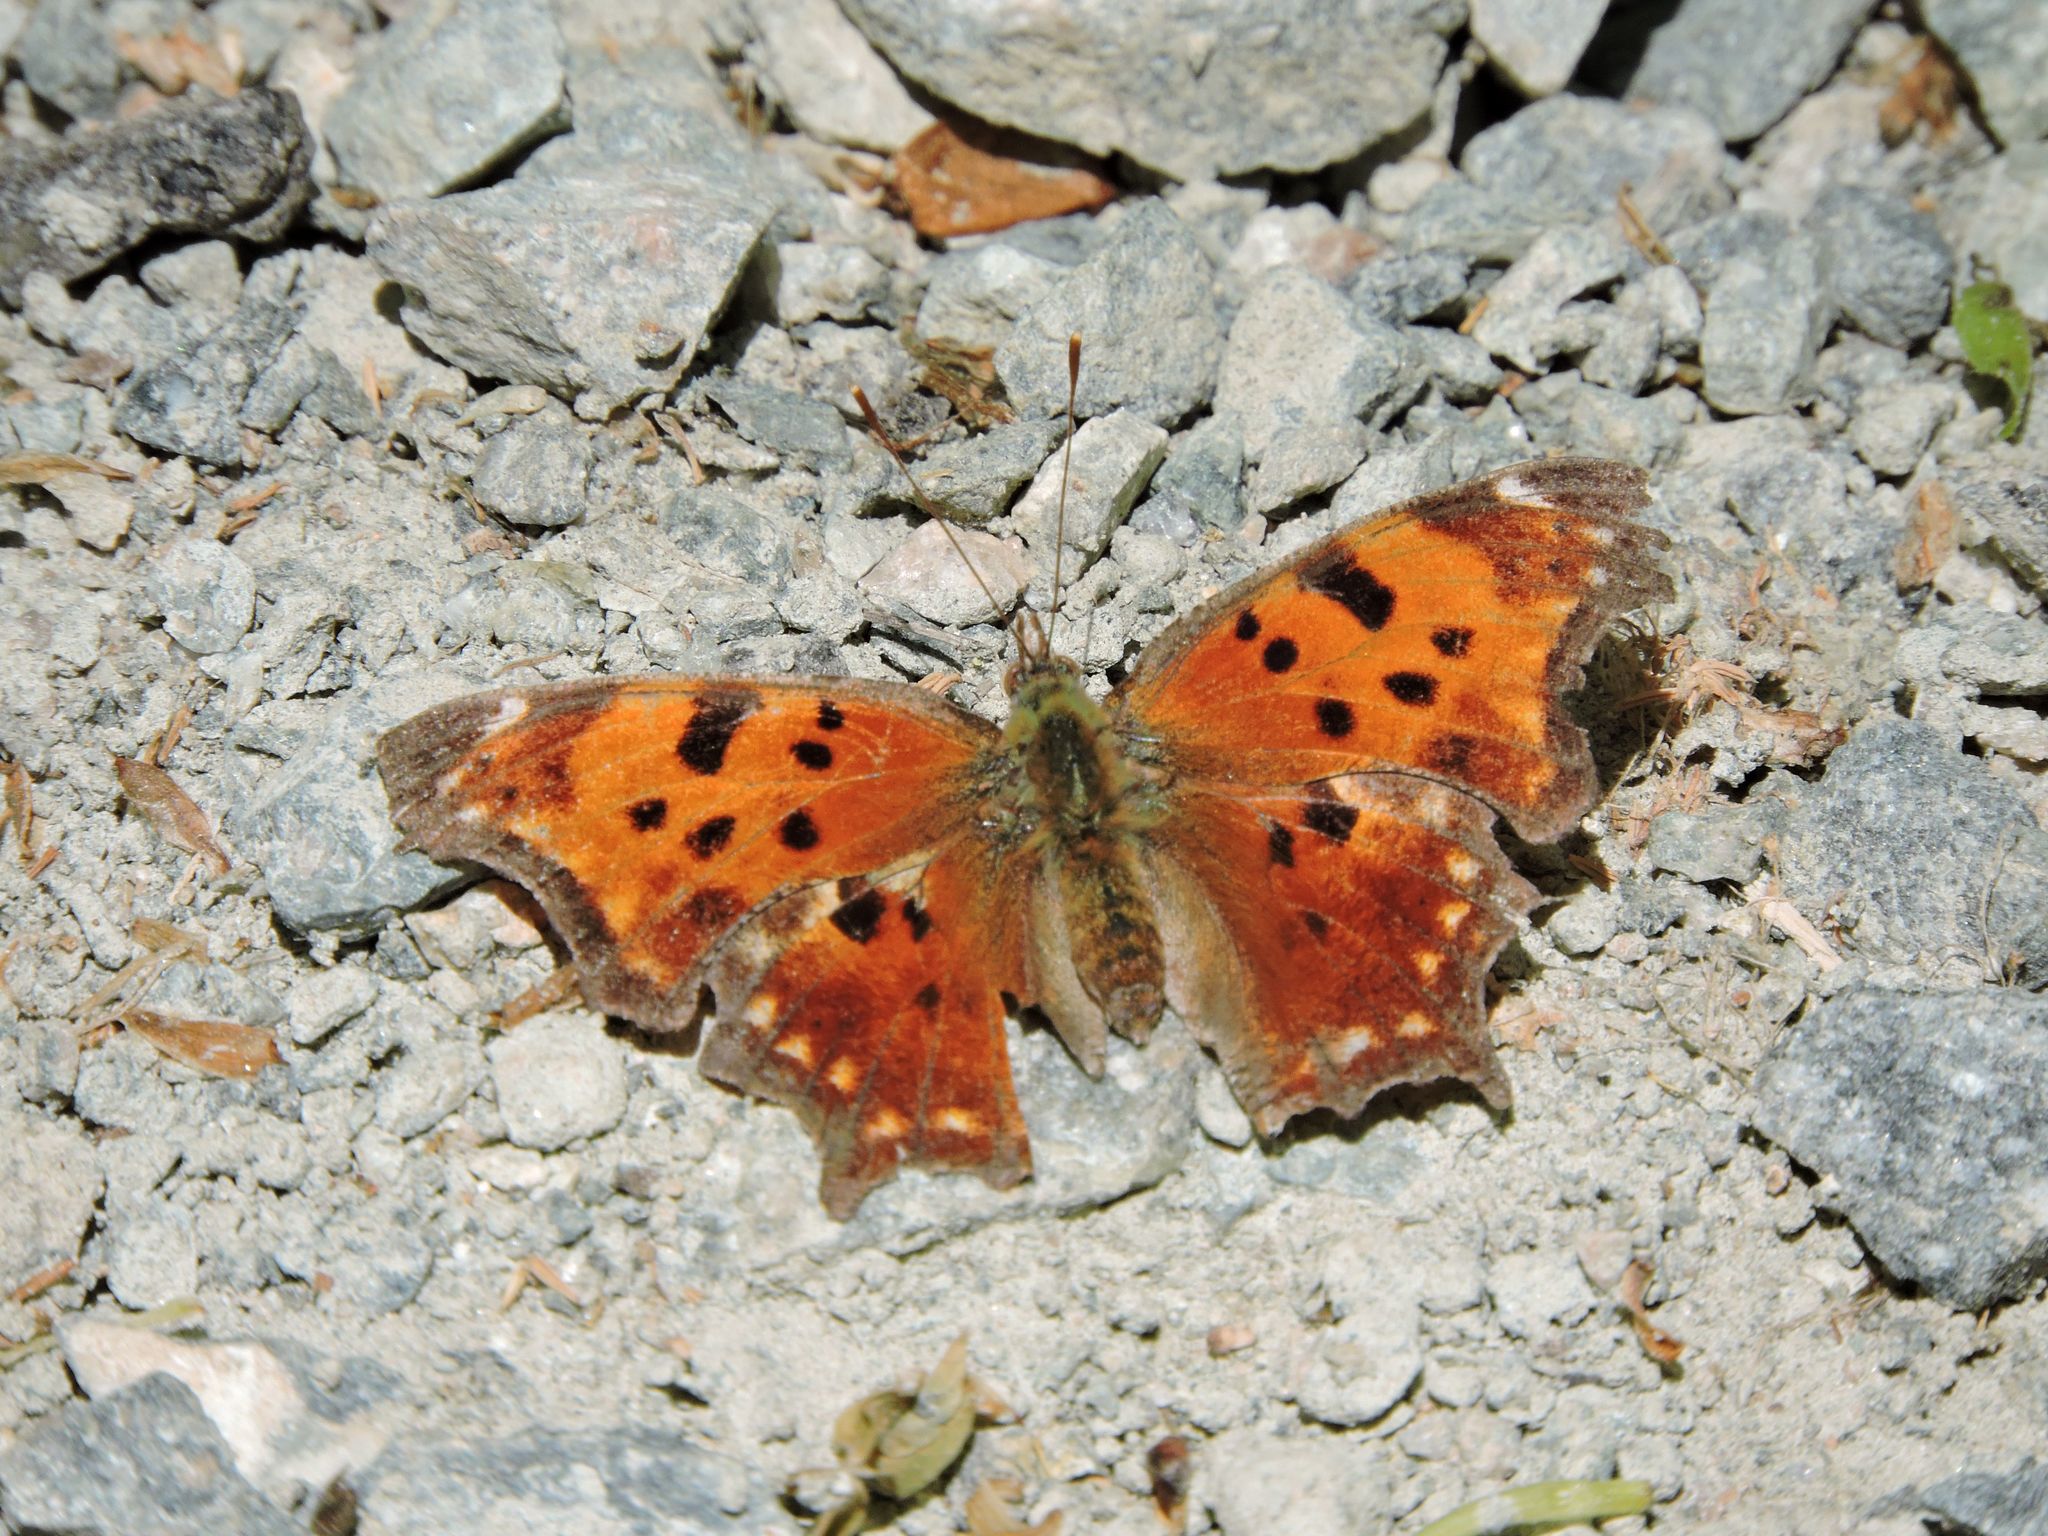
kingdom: Animalia
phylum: Arthropoda
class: Insecta
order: Lepidoptera
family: Nymphalidae
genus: Polygonia
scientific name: Polygonia comma
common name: Eastern comma
